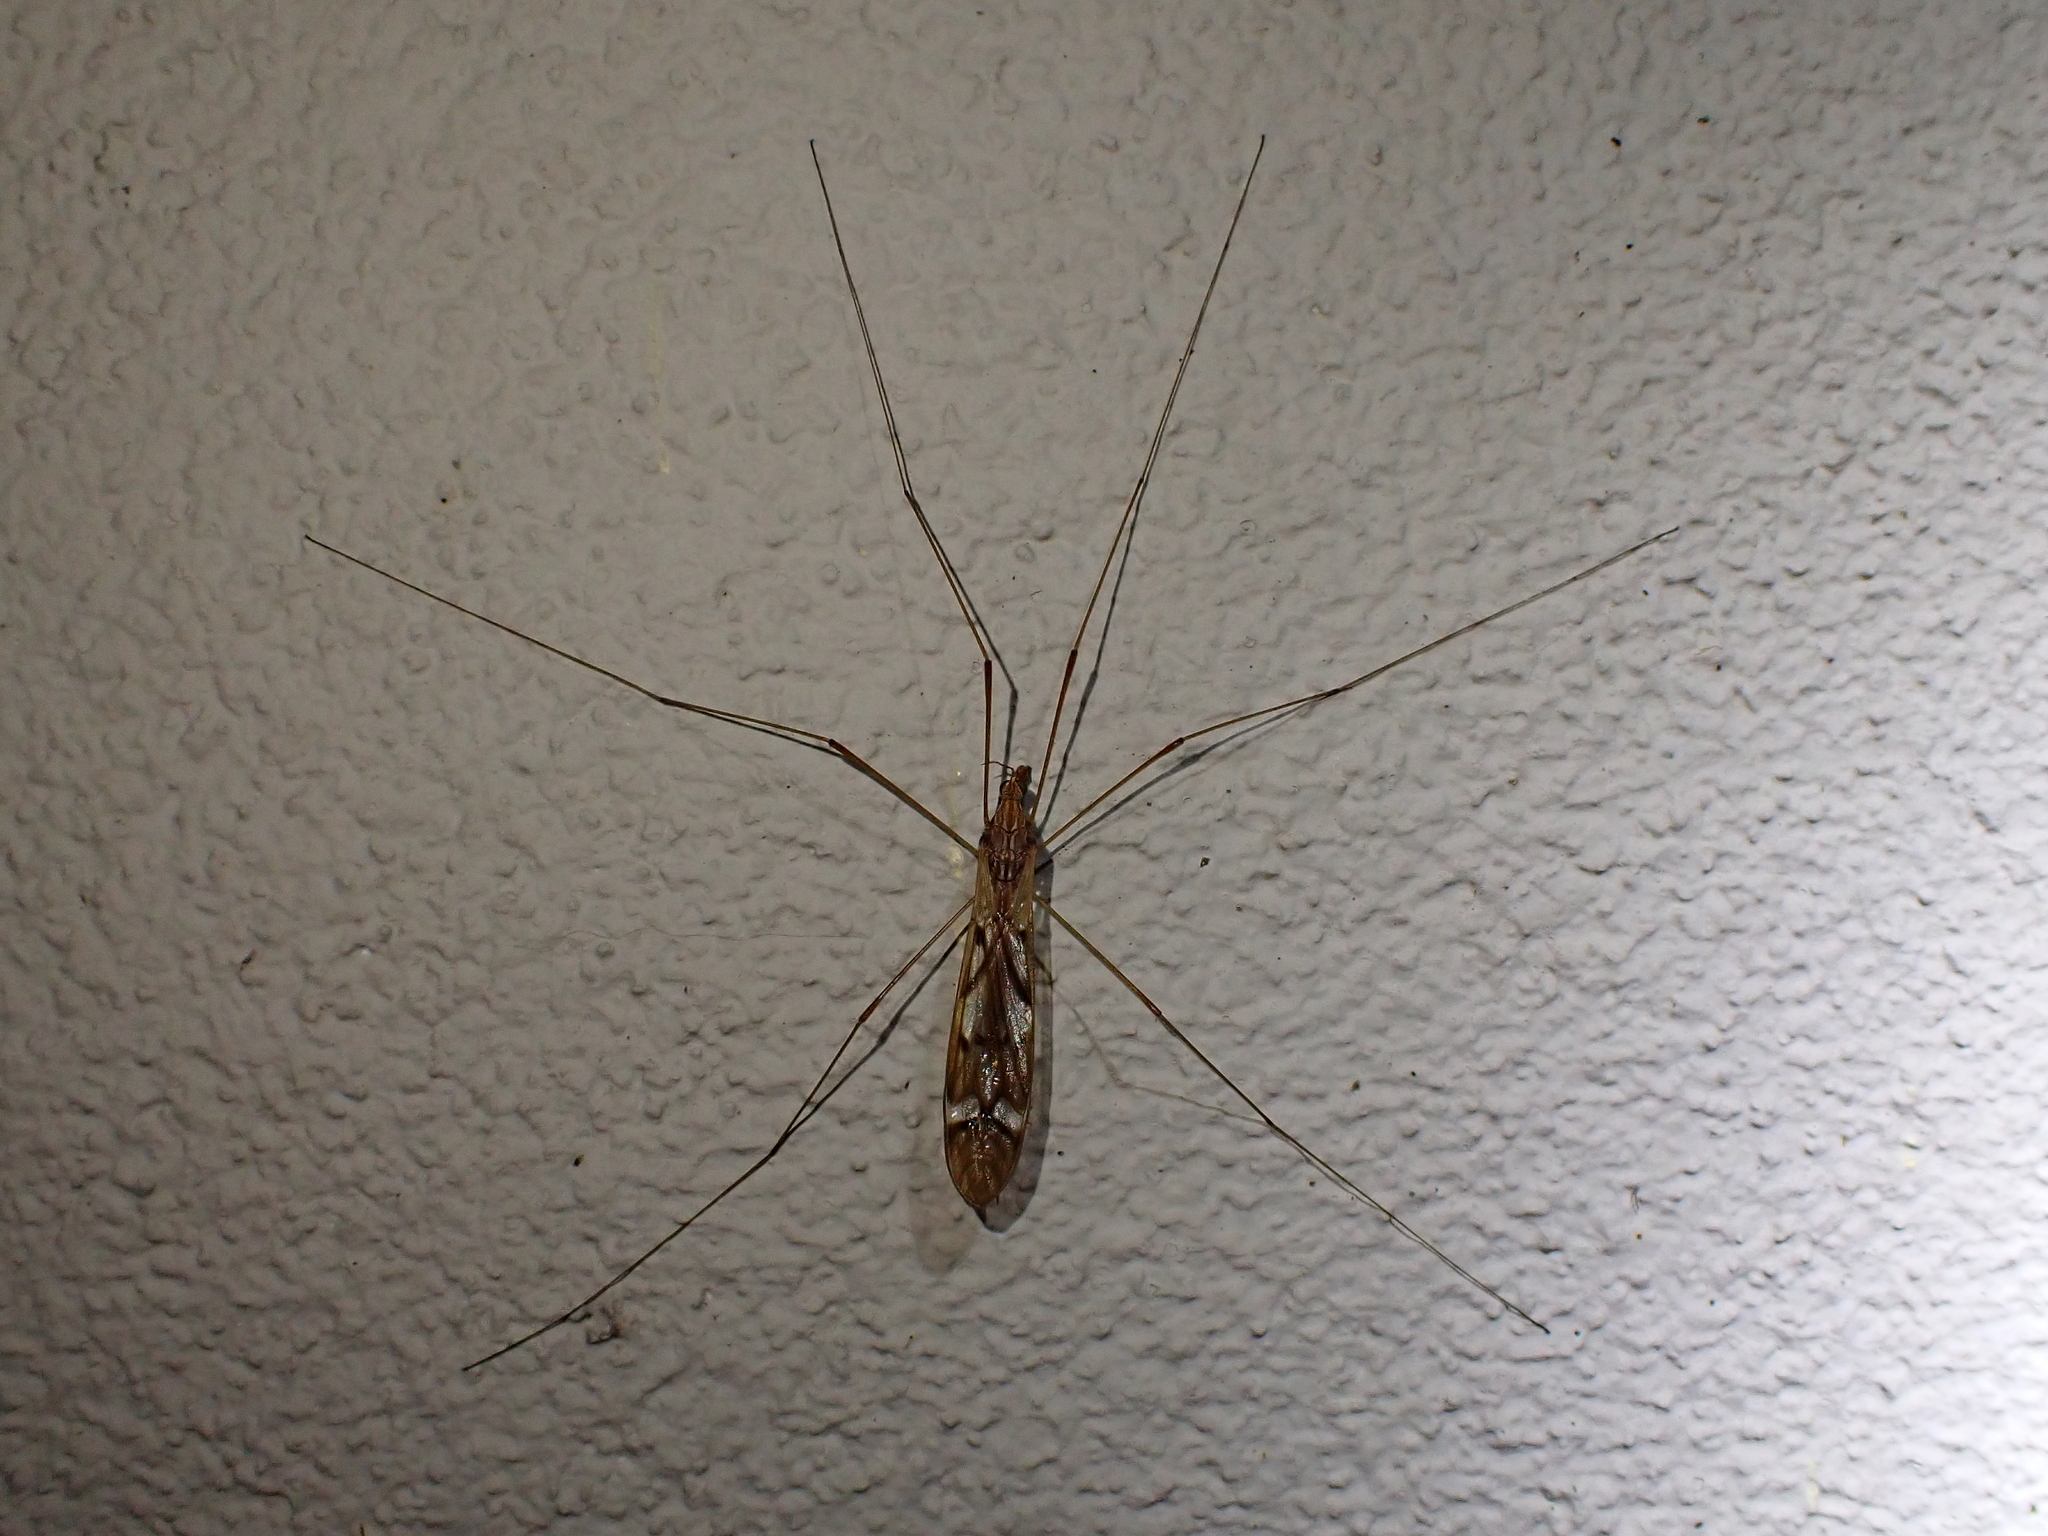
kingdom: Animalia
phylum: Arthropoda
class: Insecta
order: Diptera
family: Tipulidae
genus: Zelandotipula
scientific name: Zelandotipula fulva
